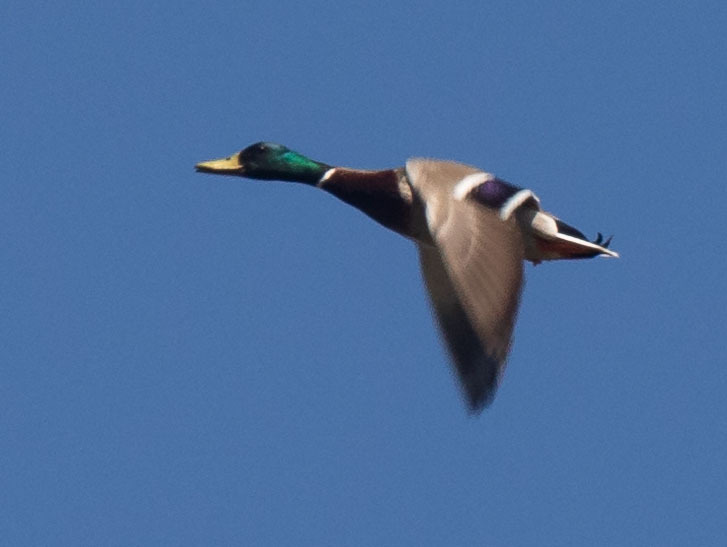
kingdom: Animalia
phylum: Chordata
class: Aves
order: Anseriformes
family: Anatidae
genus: Anas
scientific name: Anas platyrhynchos
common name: Mallard
